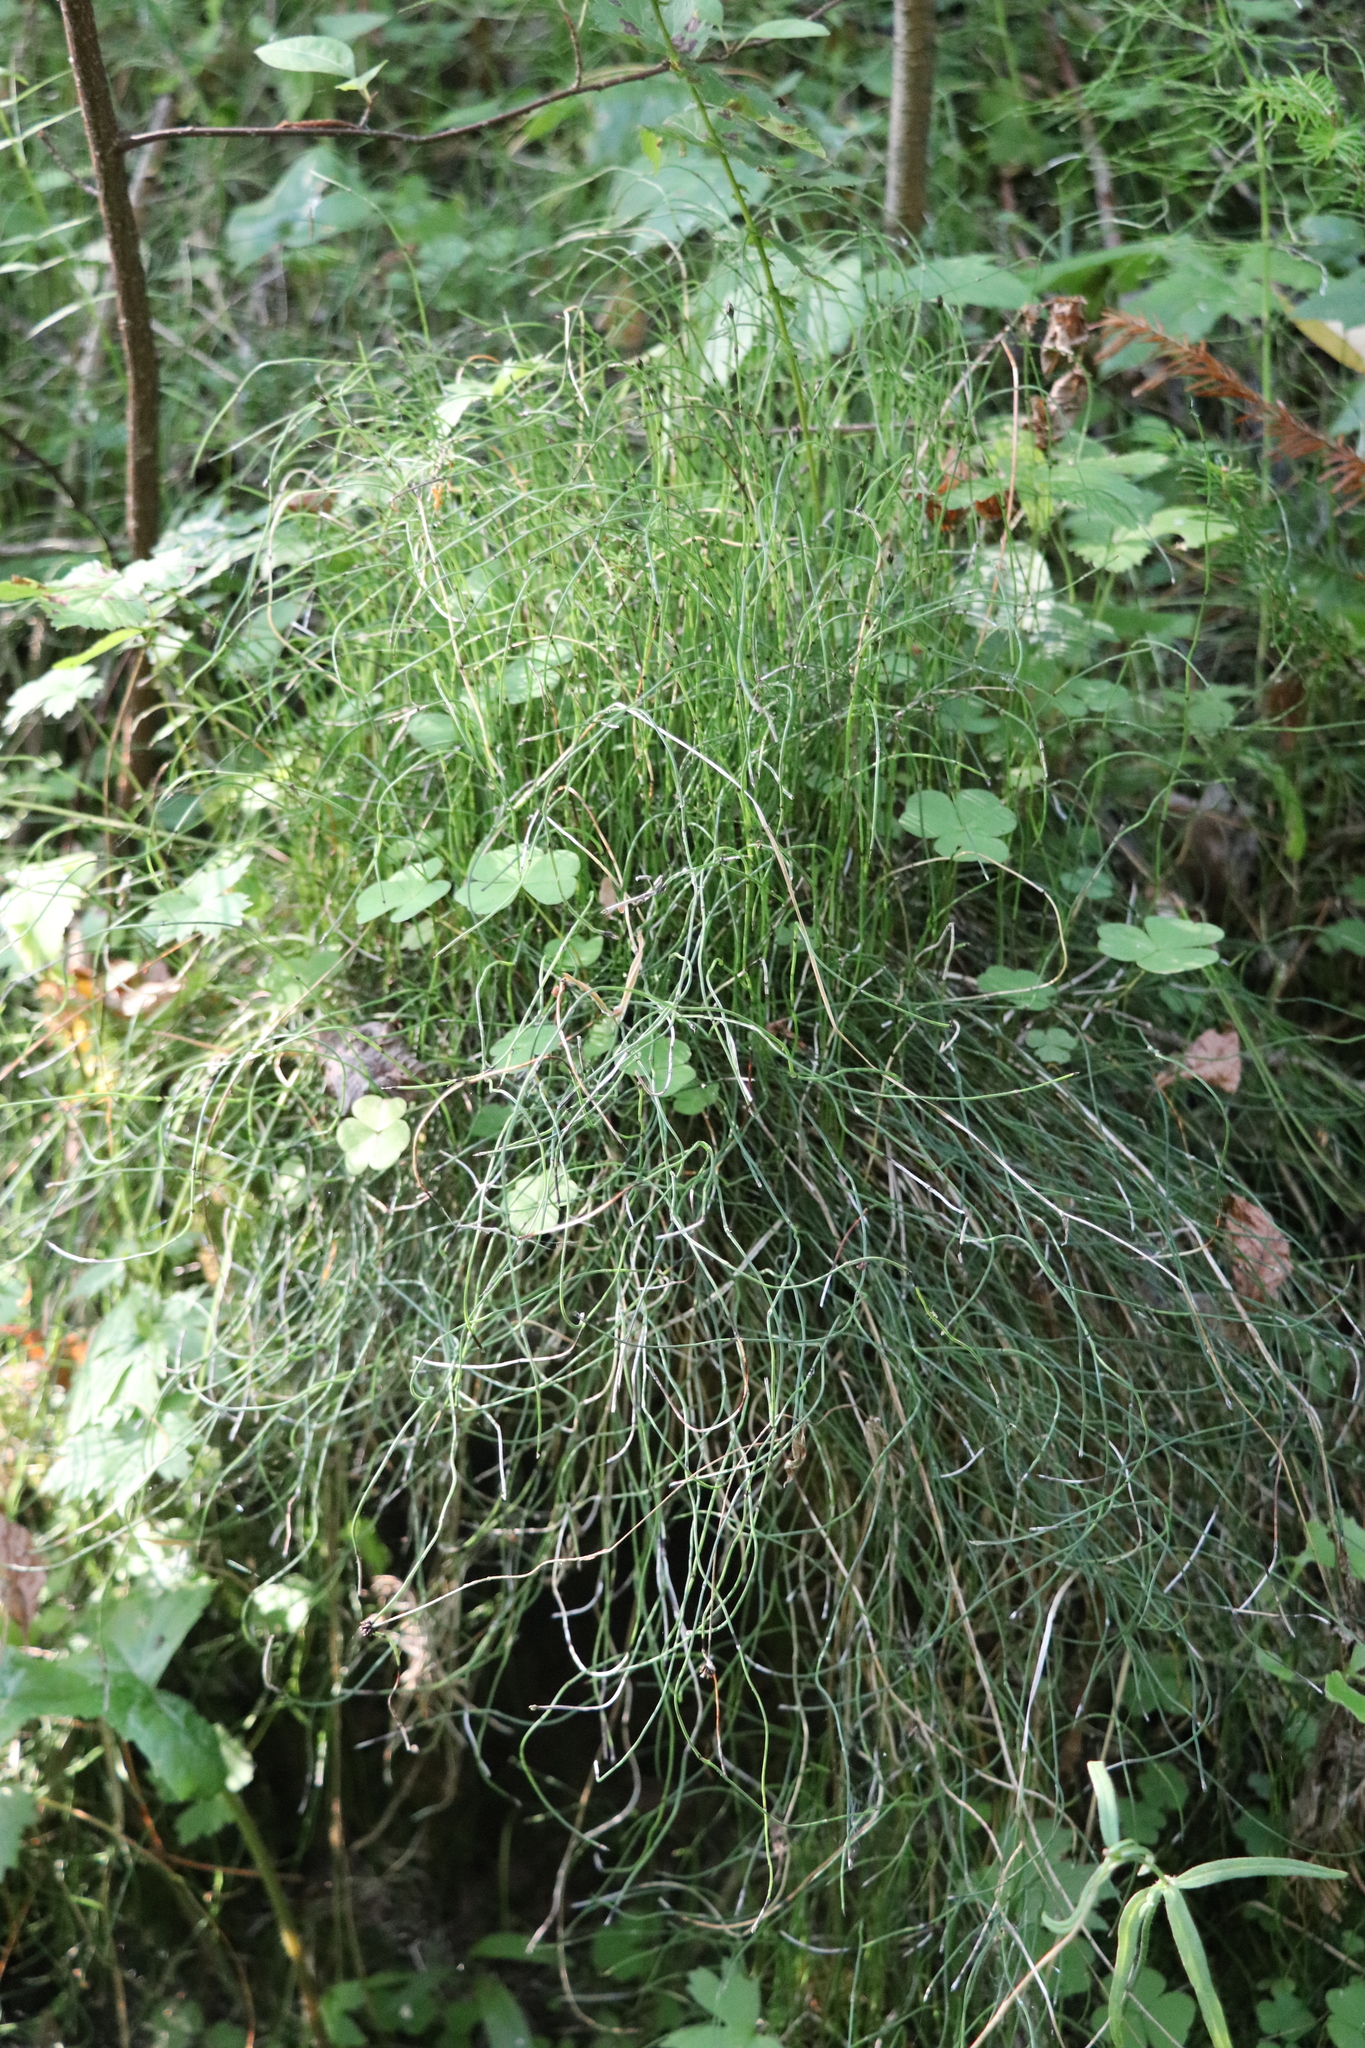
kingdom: Plantae
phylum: Tracheophyta
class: Polypodiopsida
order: Equisetales
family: Equisetaceae
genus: Equisetum
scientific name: Equisetum scirpoides
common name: Delicate horsetail
